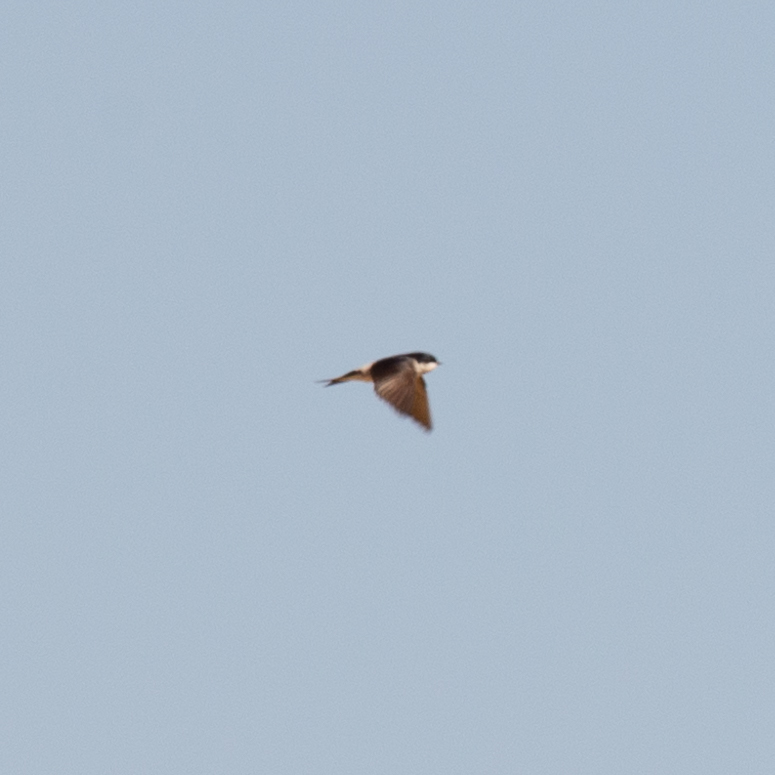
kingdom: Animalia
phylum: Chordata
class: Aves
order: Passeriformes
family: Hirundinidae
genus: Delichon
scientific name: Delichon urbicum
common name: Common house martin
